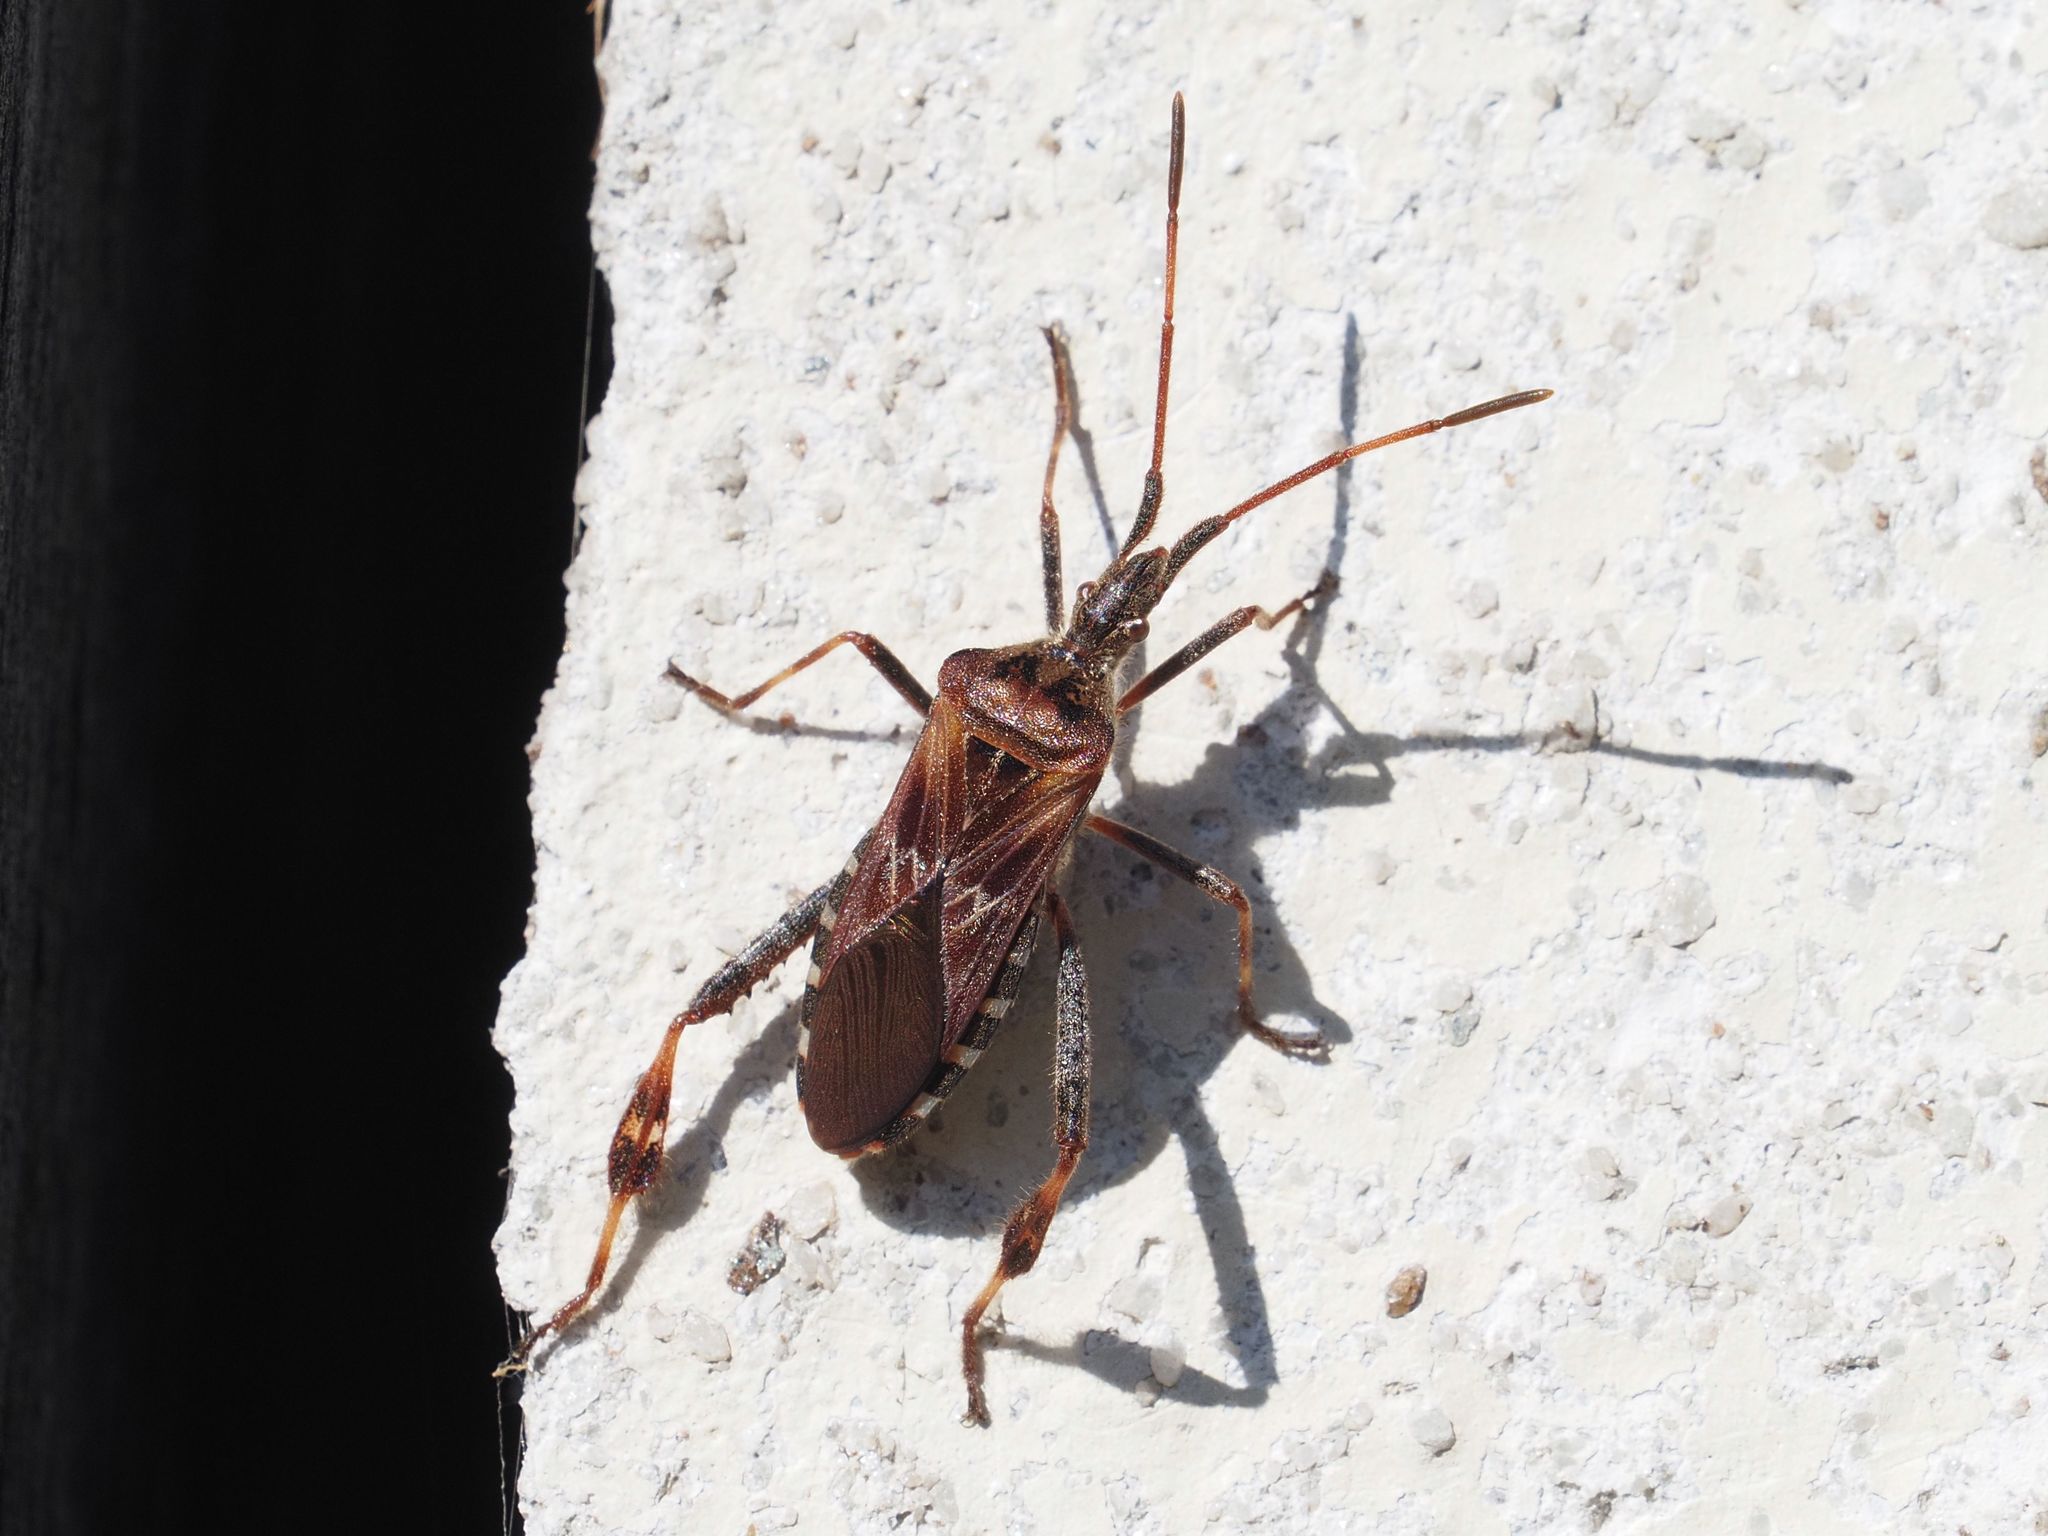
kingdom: Animalia
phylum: Arthropoda
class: Insecta
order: Hemiptera
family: Coreidae
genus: Leptoglossus
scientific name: Leptoglossus occidentalis
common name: Western conifer-seed bug
